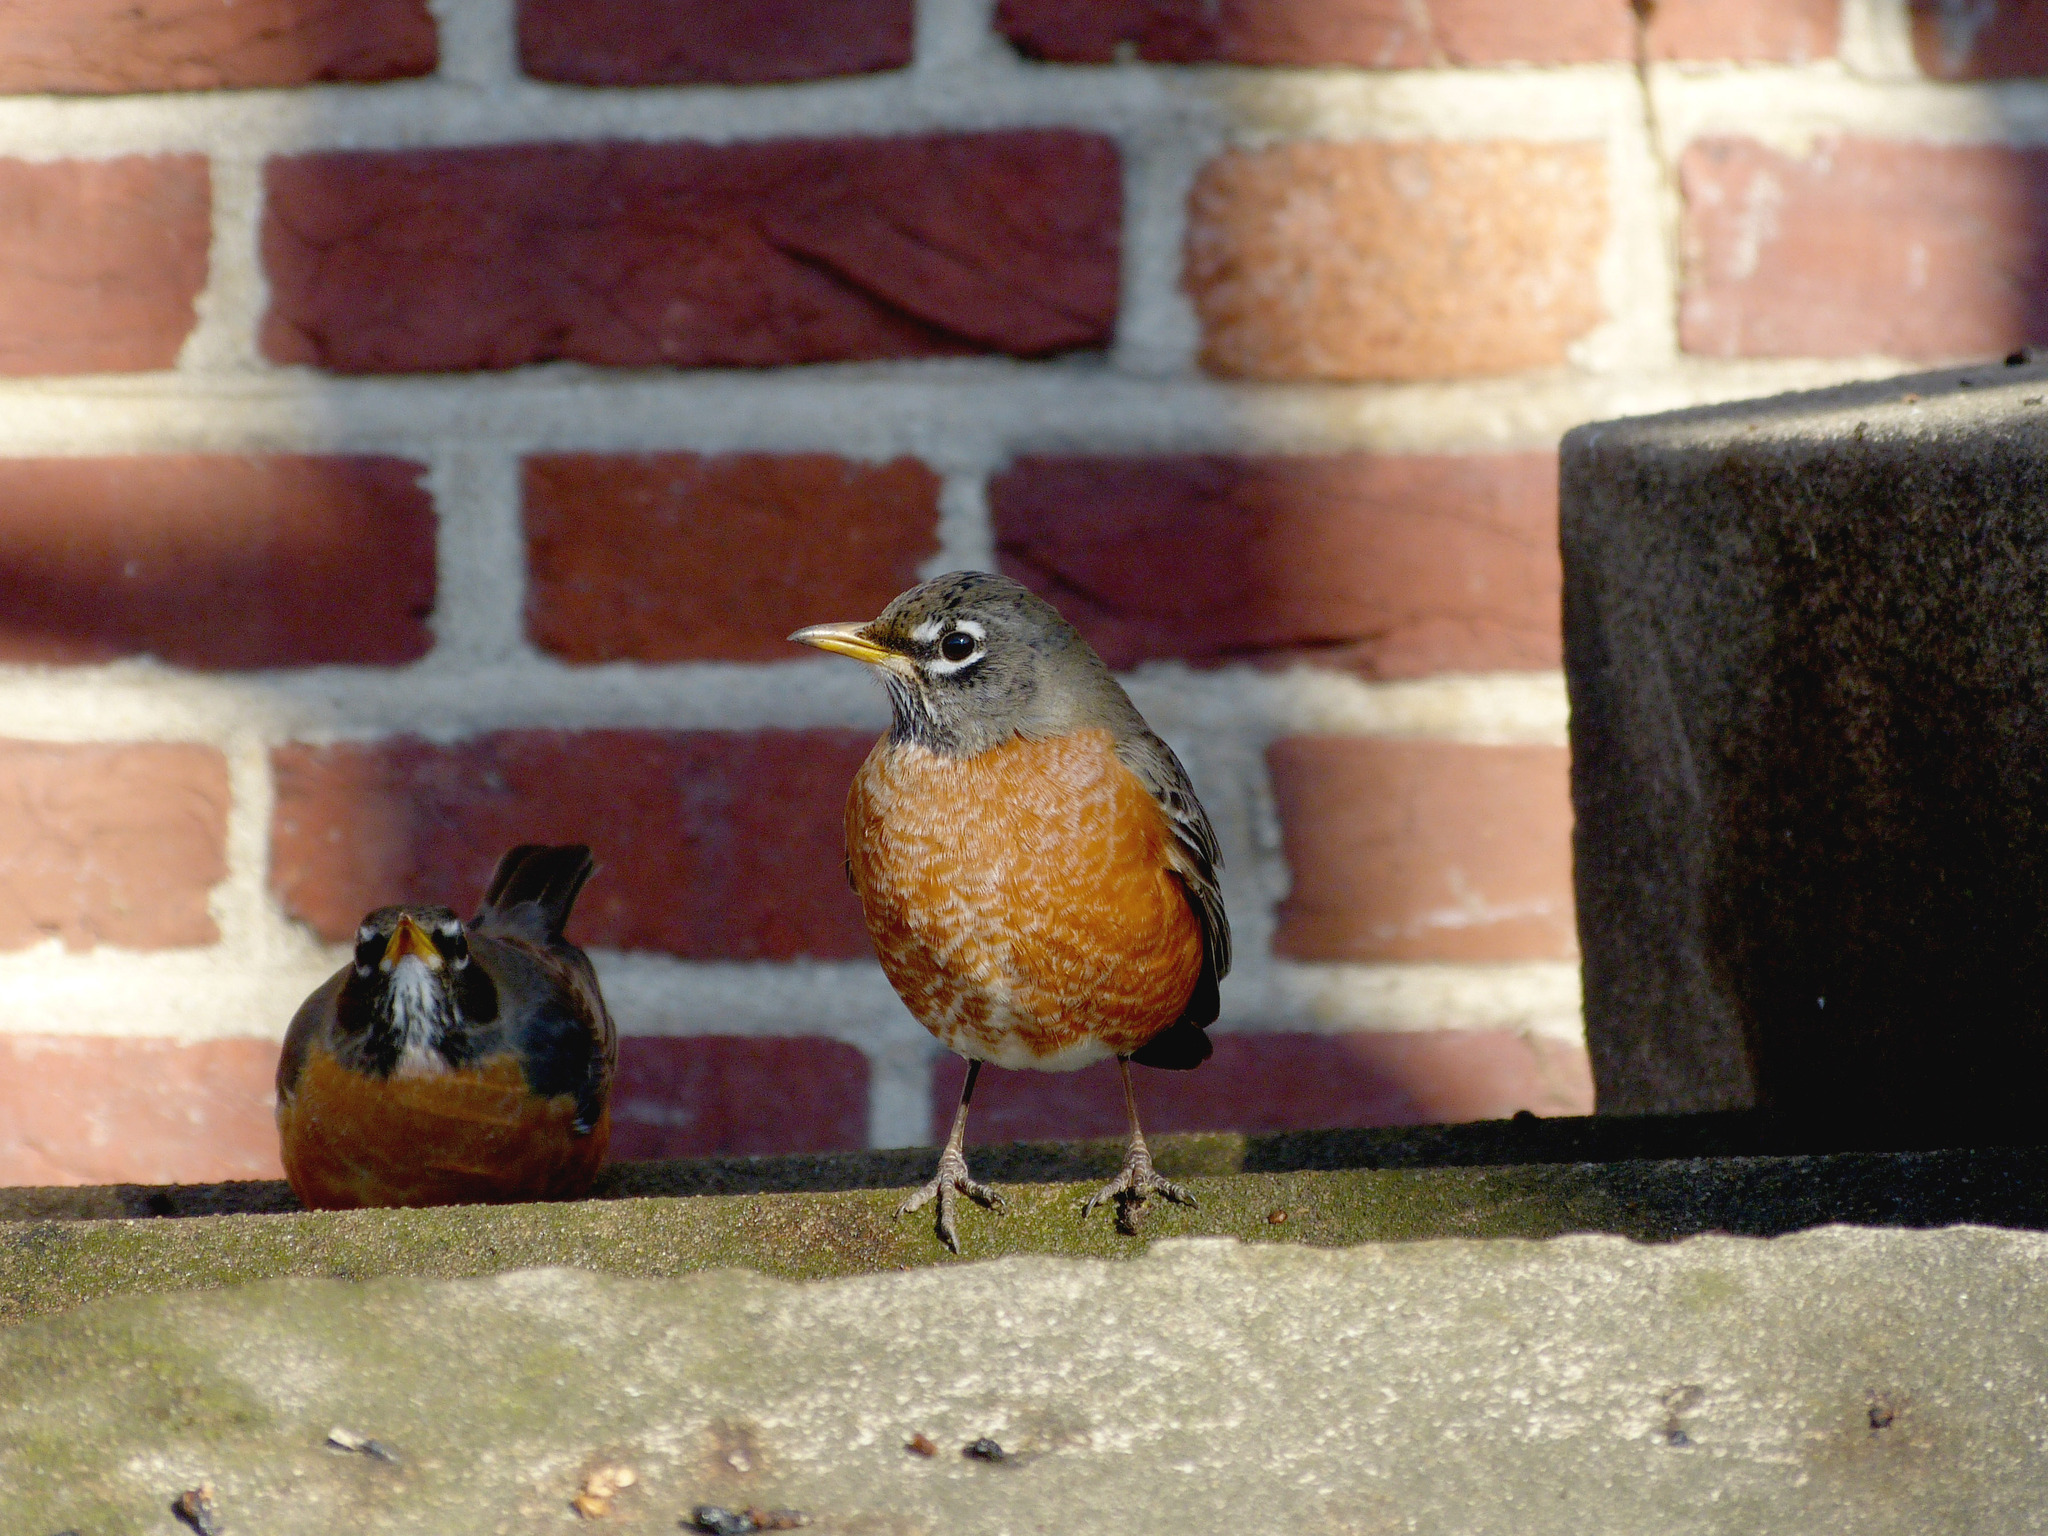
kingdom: Animalia
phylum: Chordata
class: Aves
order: Passeriformes
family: Turdidae
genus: Turdus
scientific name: Turdus migratorius
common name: American robin
